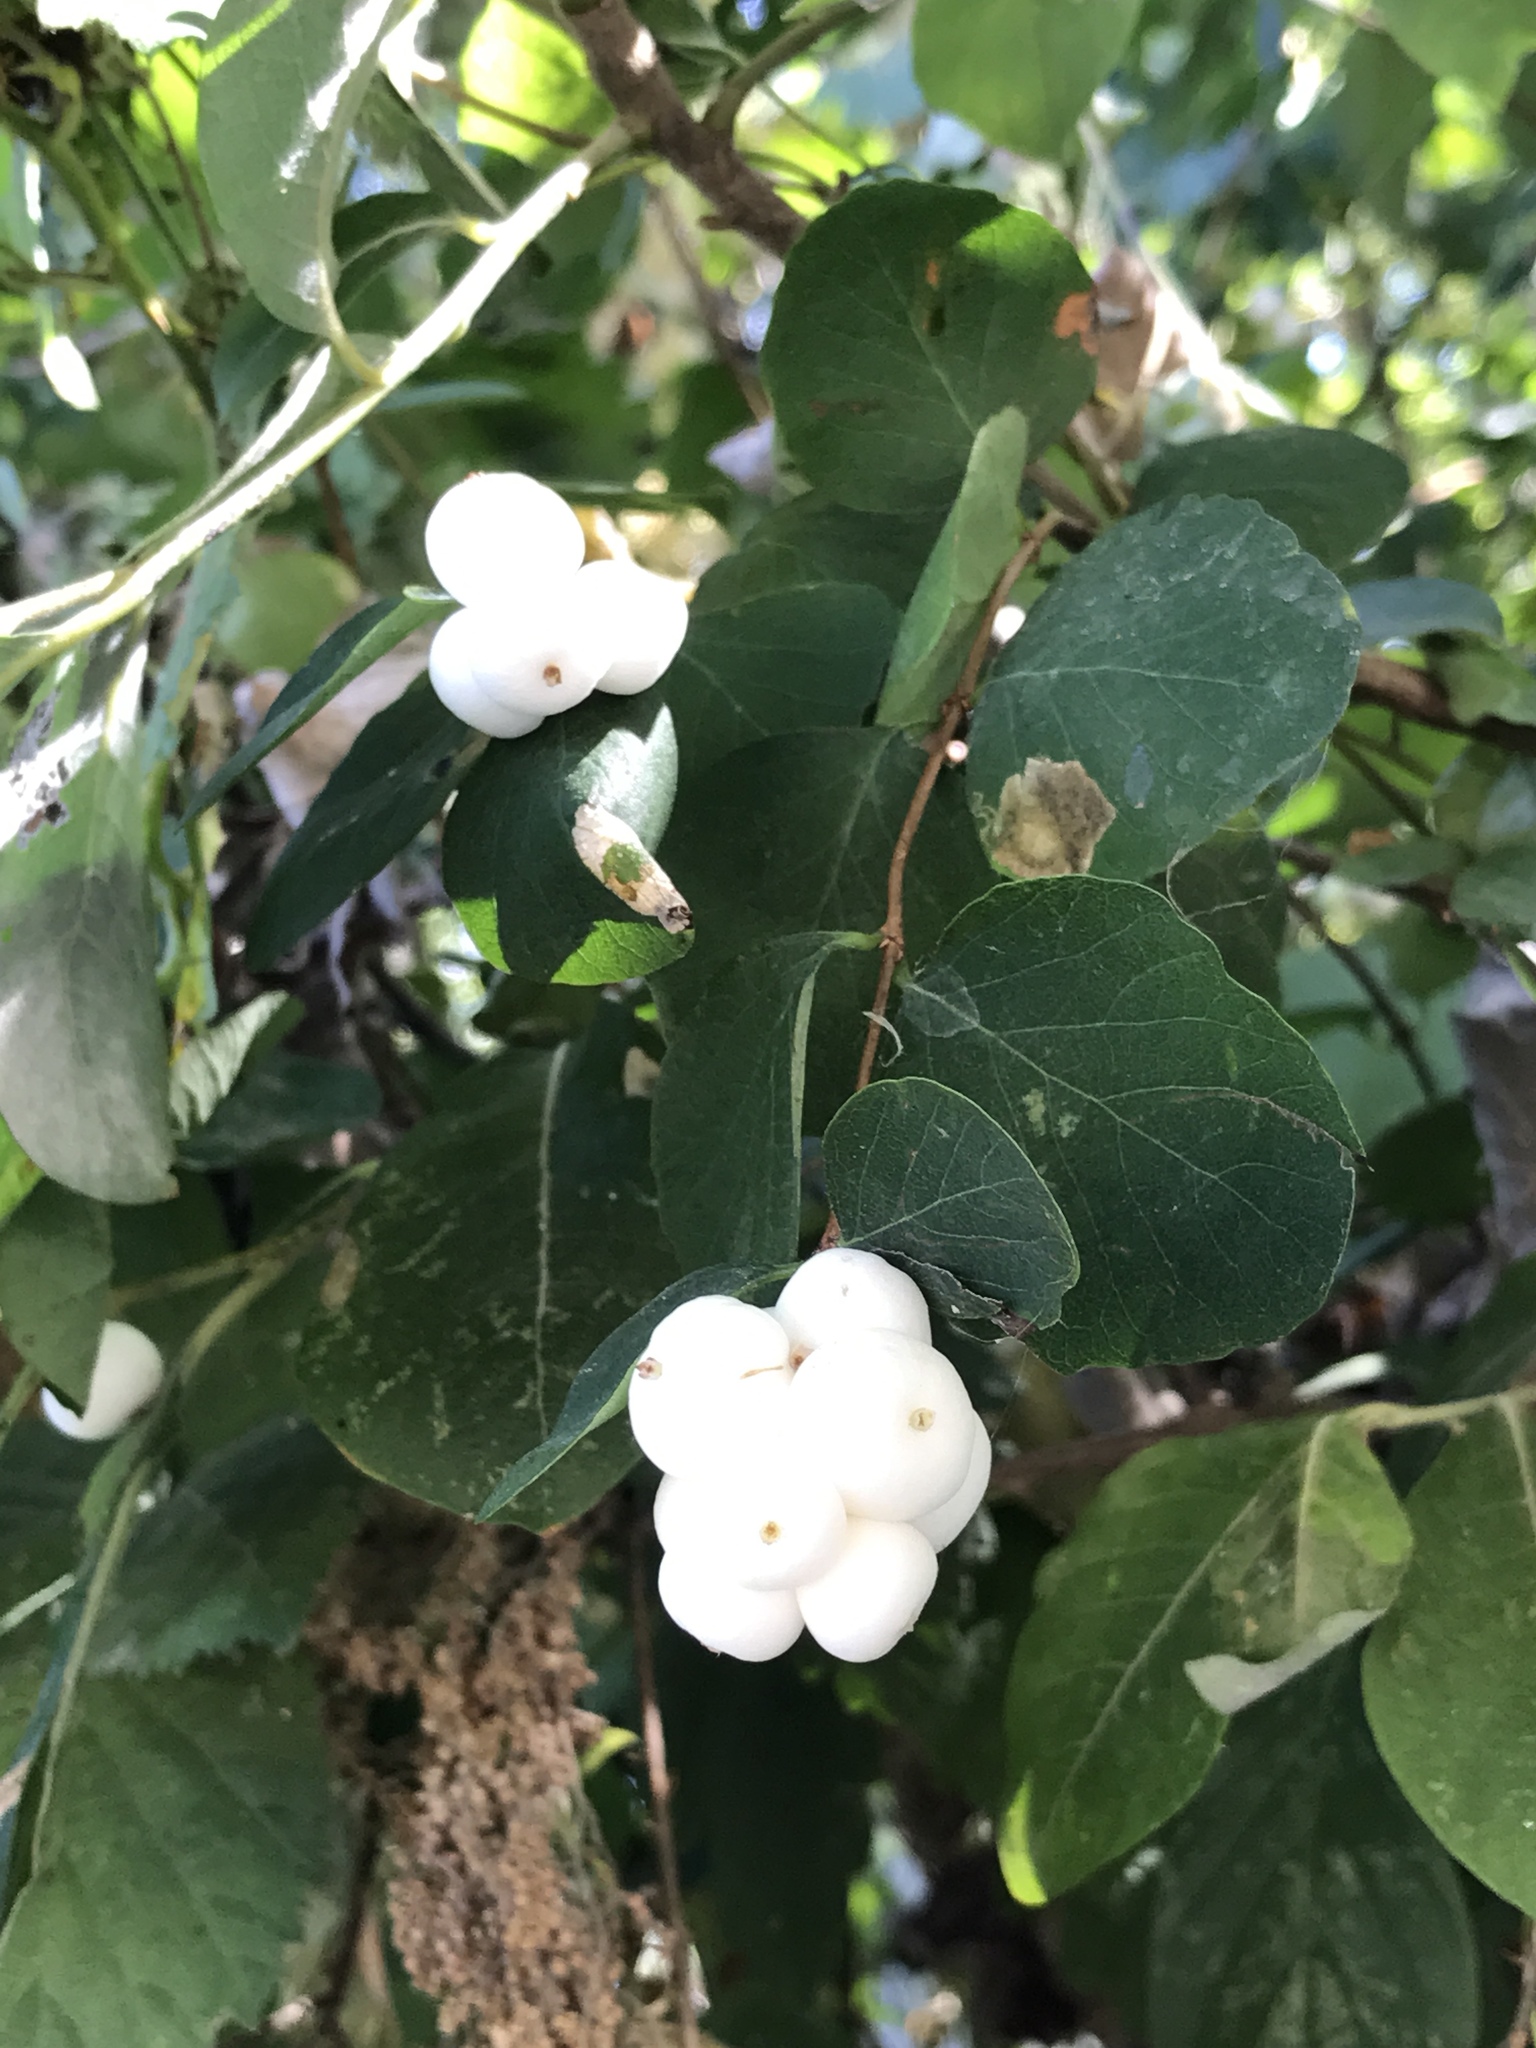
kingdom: Plantae
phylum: Tracheophyta
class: Magnoliopsida
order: Dipsacales
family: Caprifoliaceae
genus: Symphoricarpos
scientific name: Symphoricarpos albus
